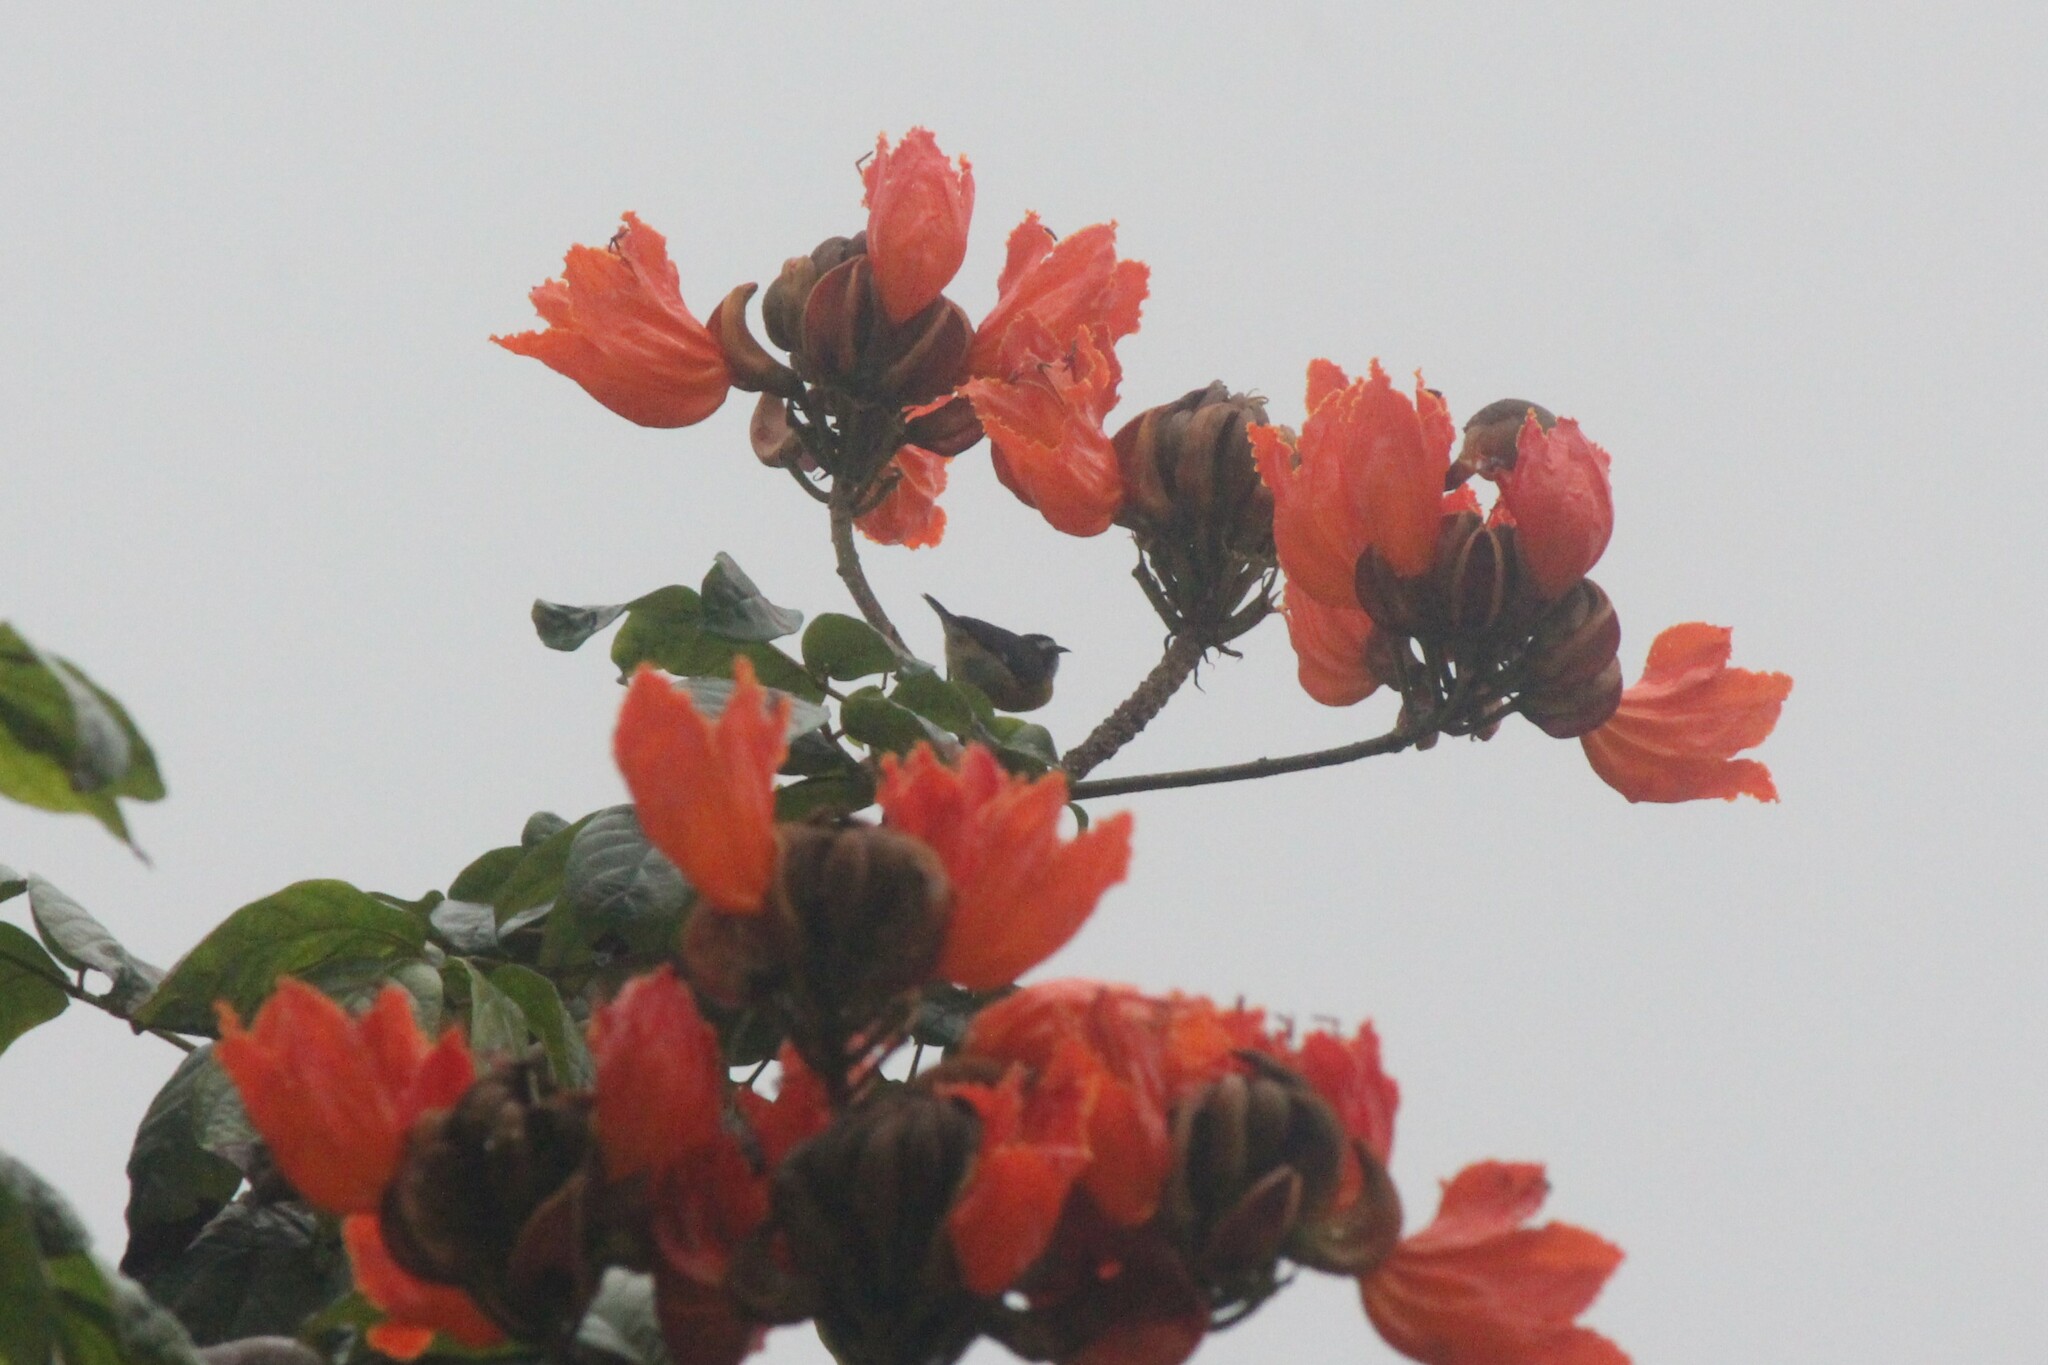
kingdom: Animalia
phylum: Chordata
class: Aves
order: Passeriformes
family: Thraupidae
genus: Coereba
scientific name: Coereba flaveola
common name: Bananaquit
